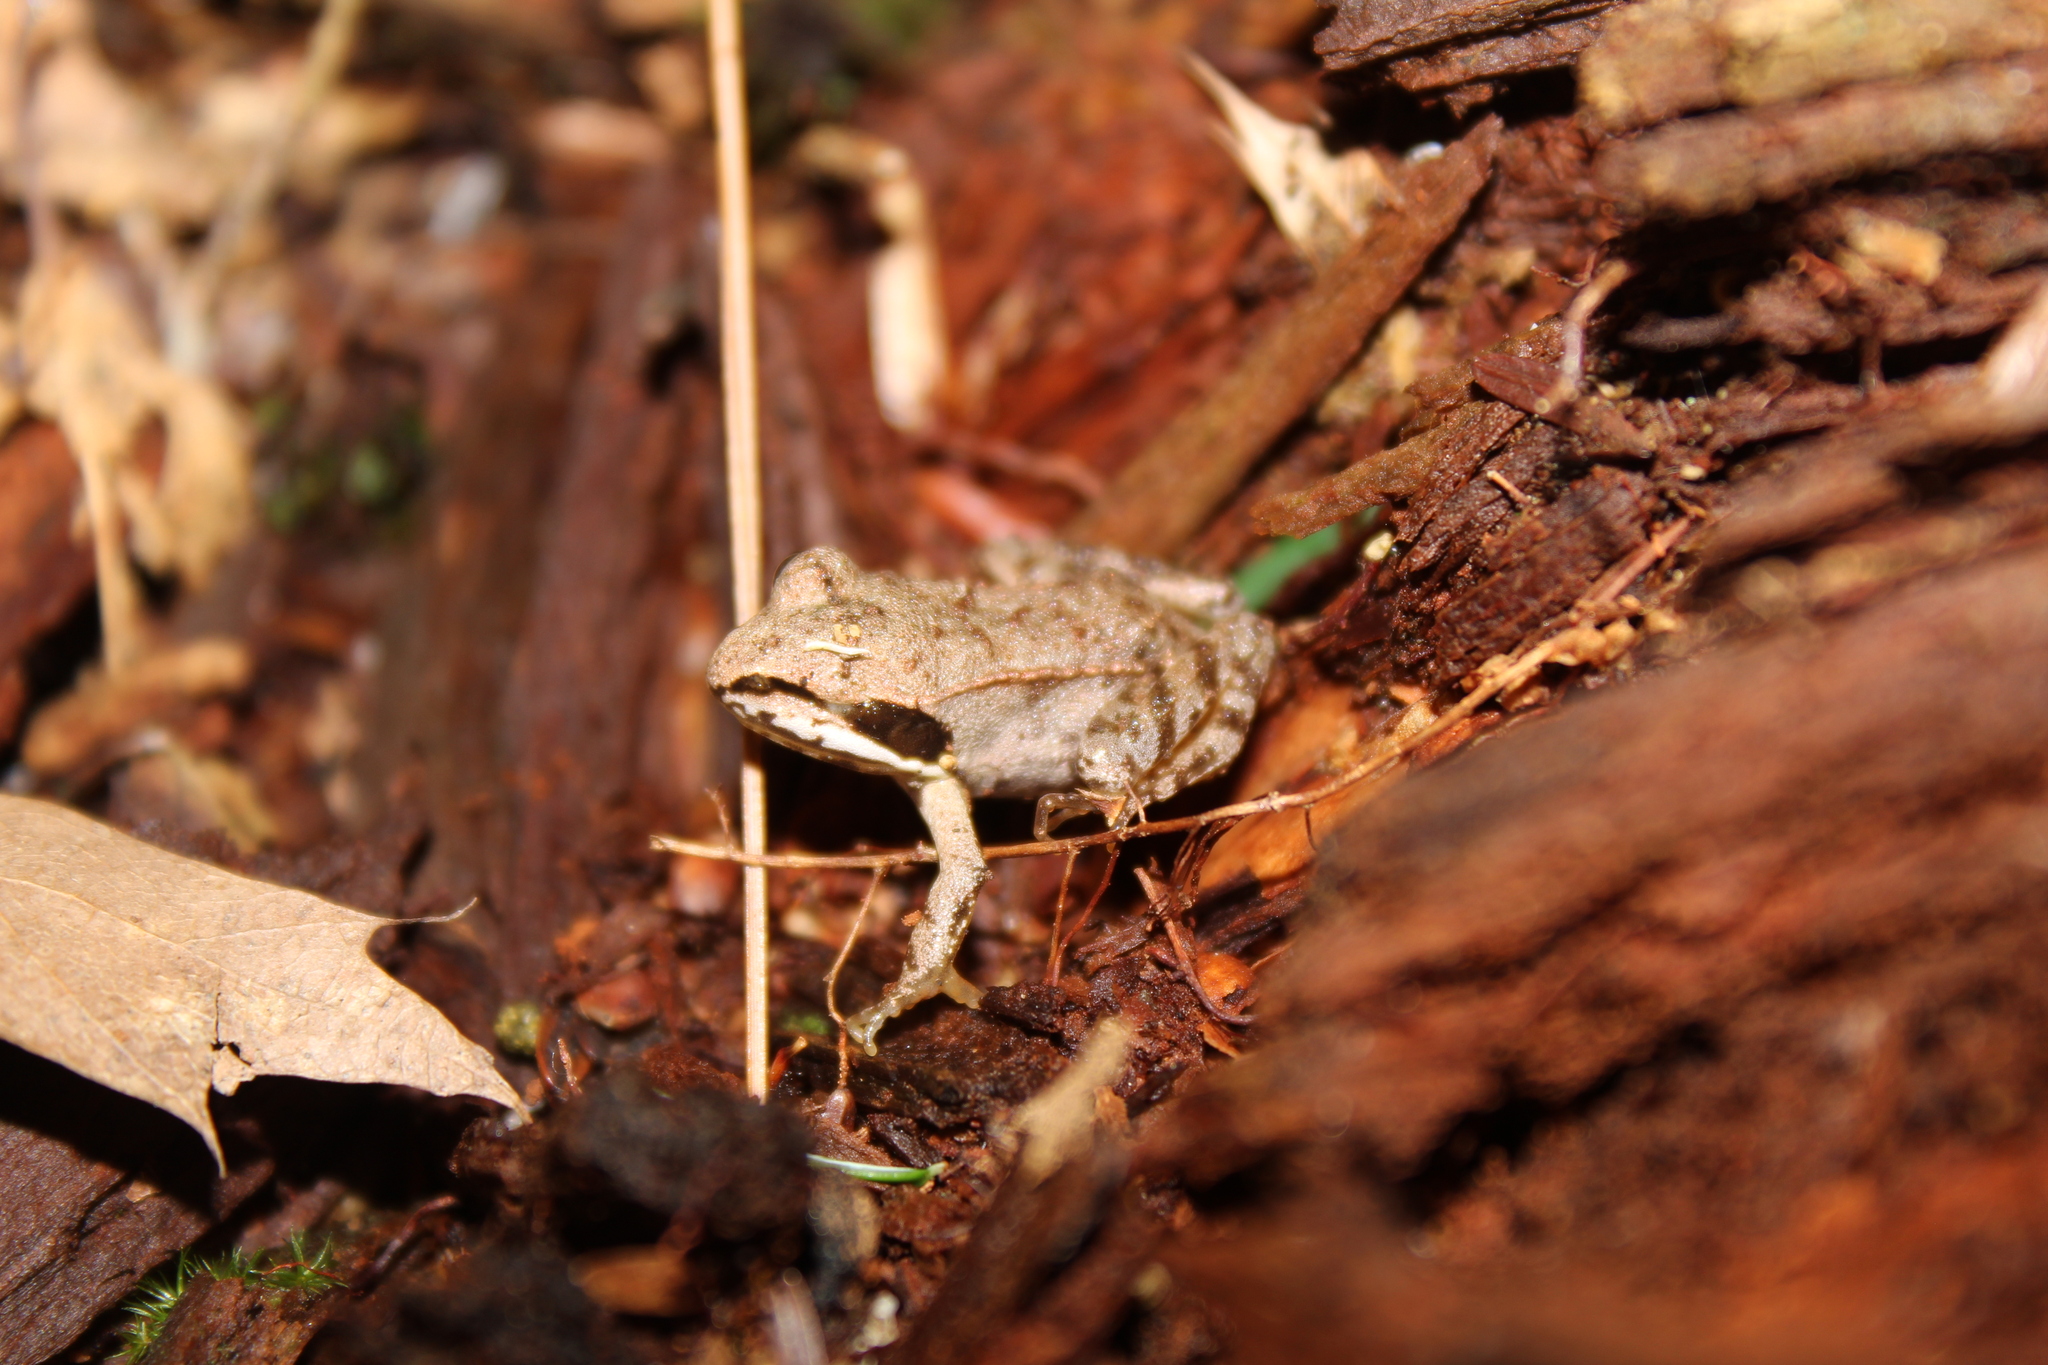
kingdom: Animalia
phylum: Chordata
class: Amphibia
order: Anura
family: Ranidae
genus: Lithobates
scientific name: Lithobates sylvaticus
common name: Wood frog
